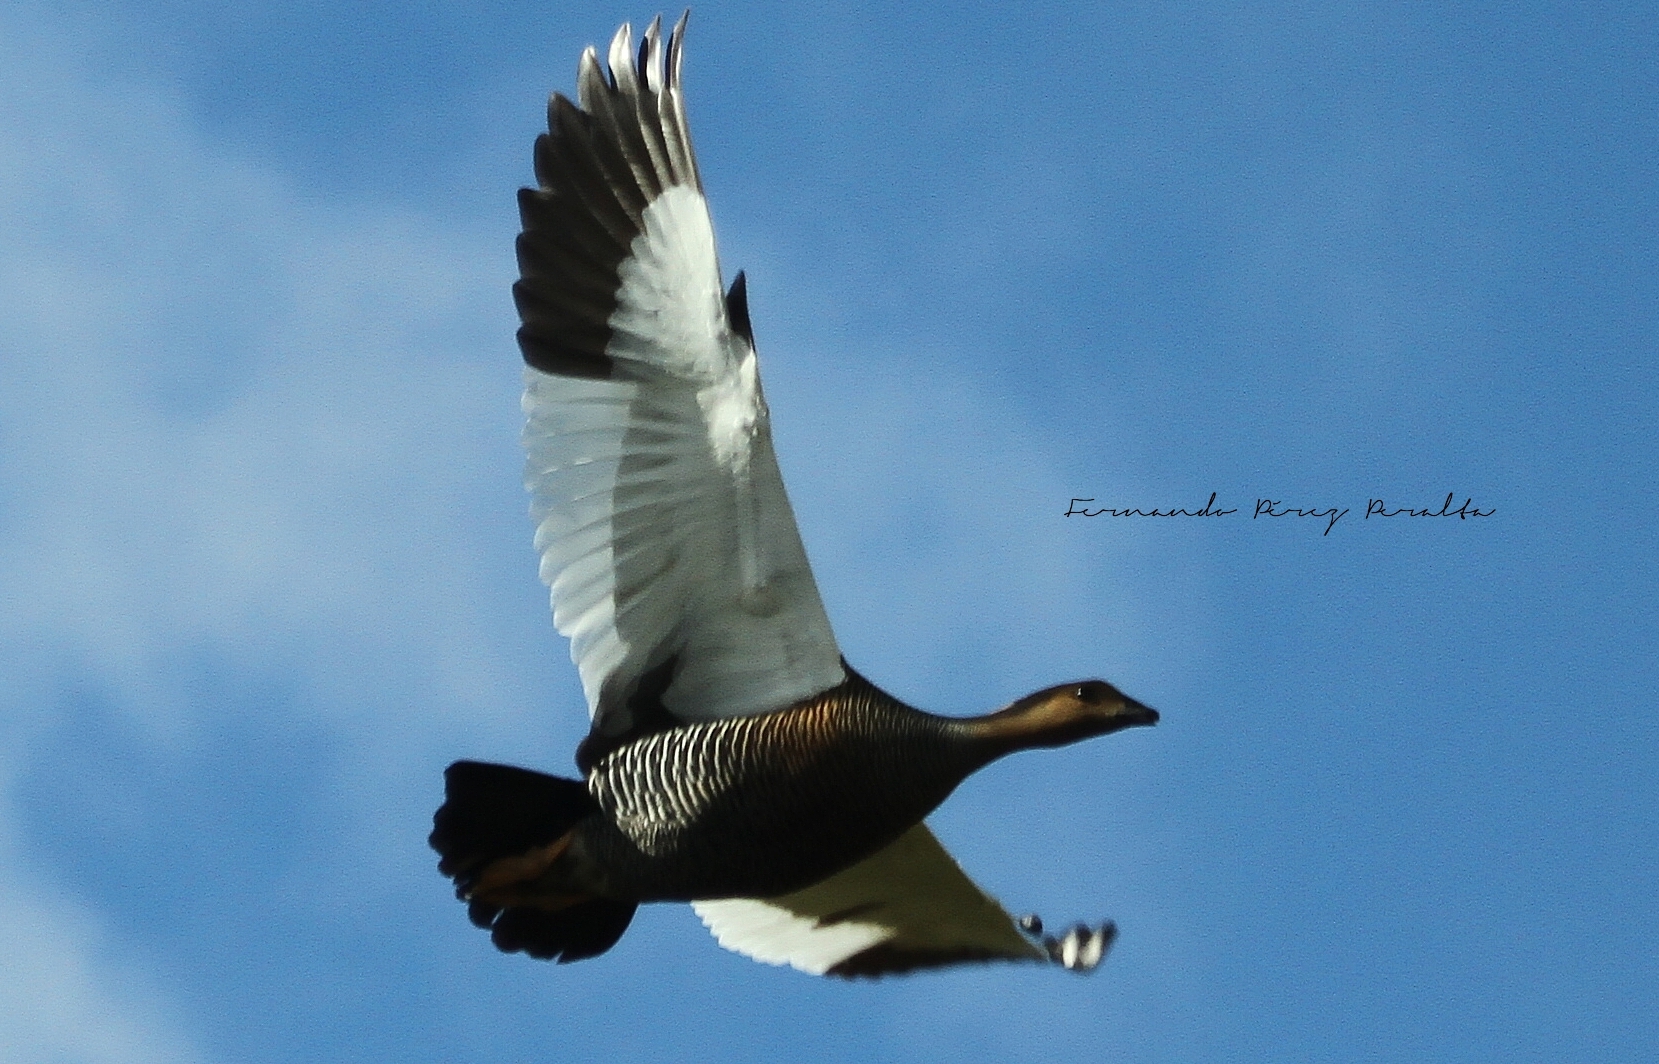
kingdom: Animalia
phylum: Chordata
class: Aves
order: Anseriformes
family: Anatidae
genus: Chloephaga
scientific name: Chloephaga picta
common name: Upland goose
